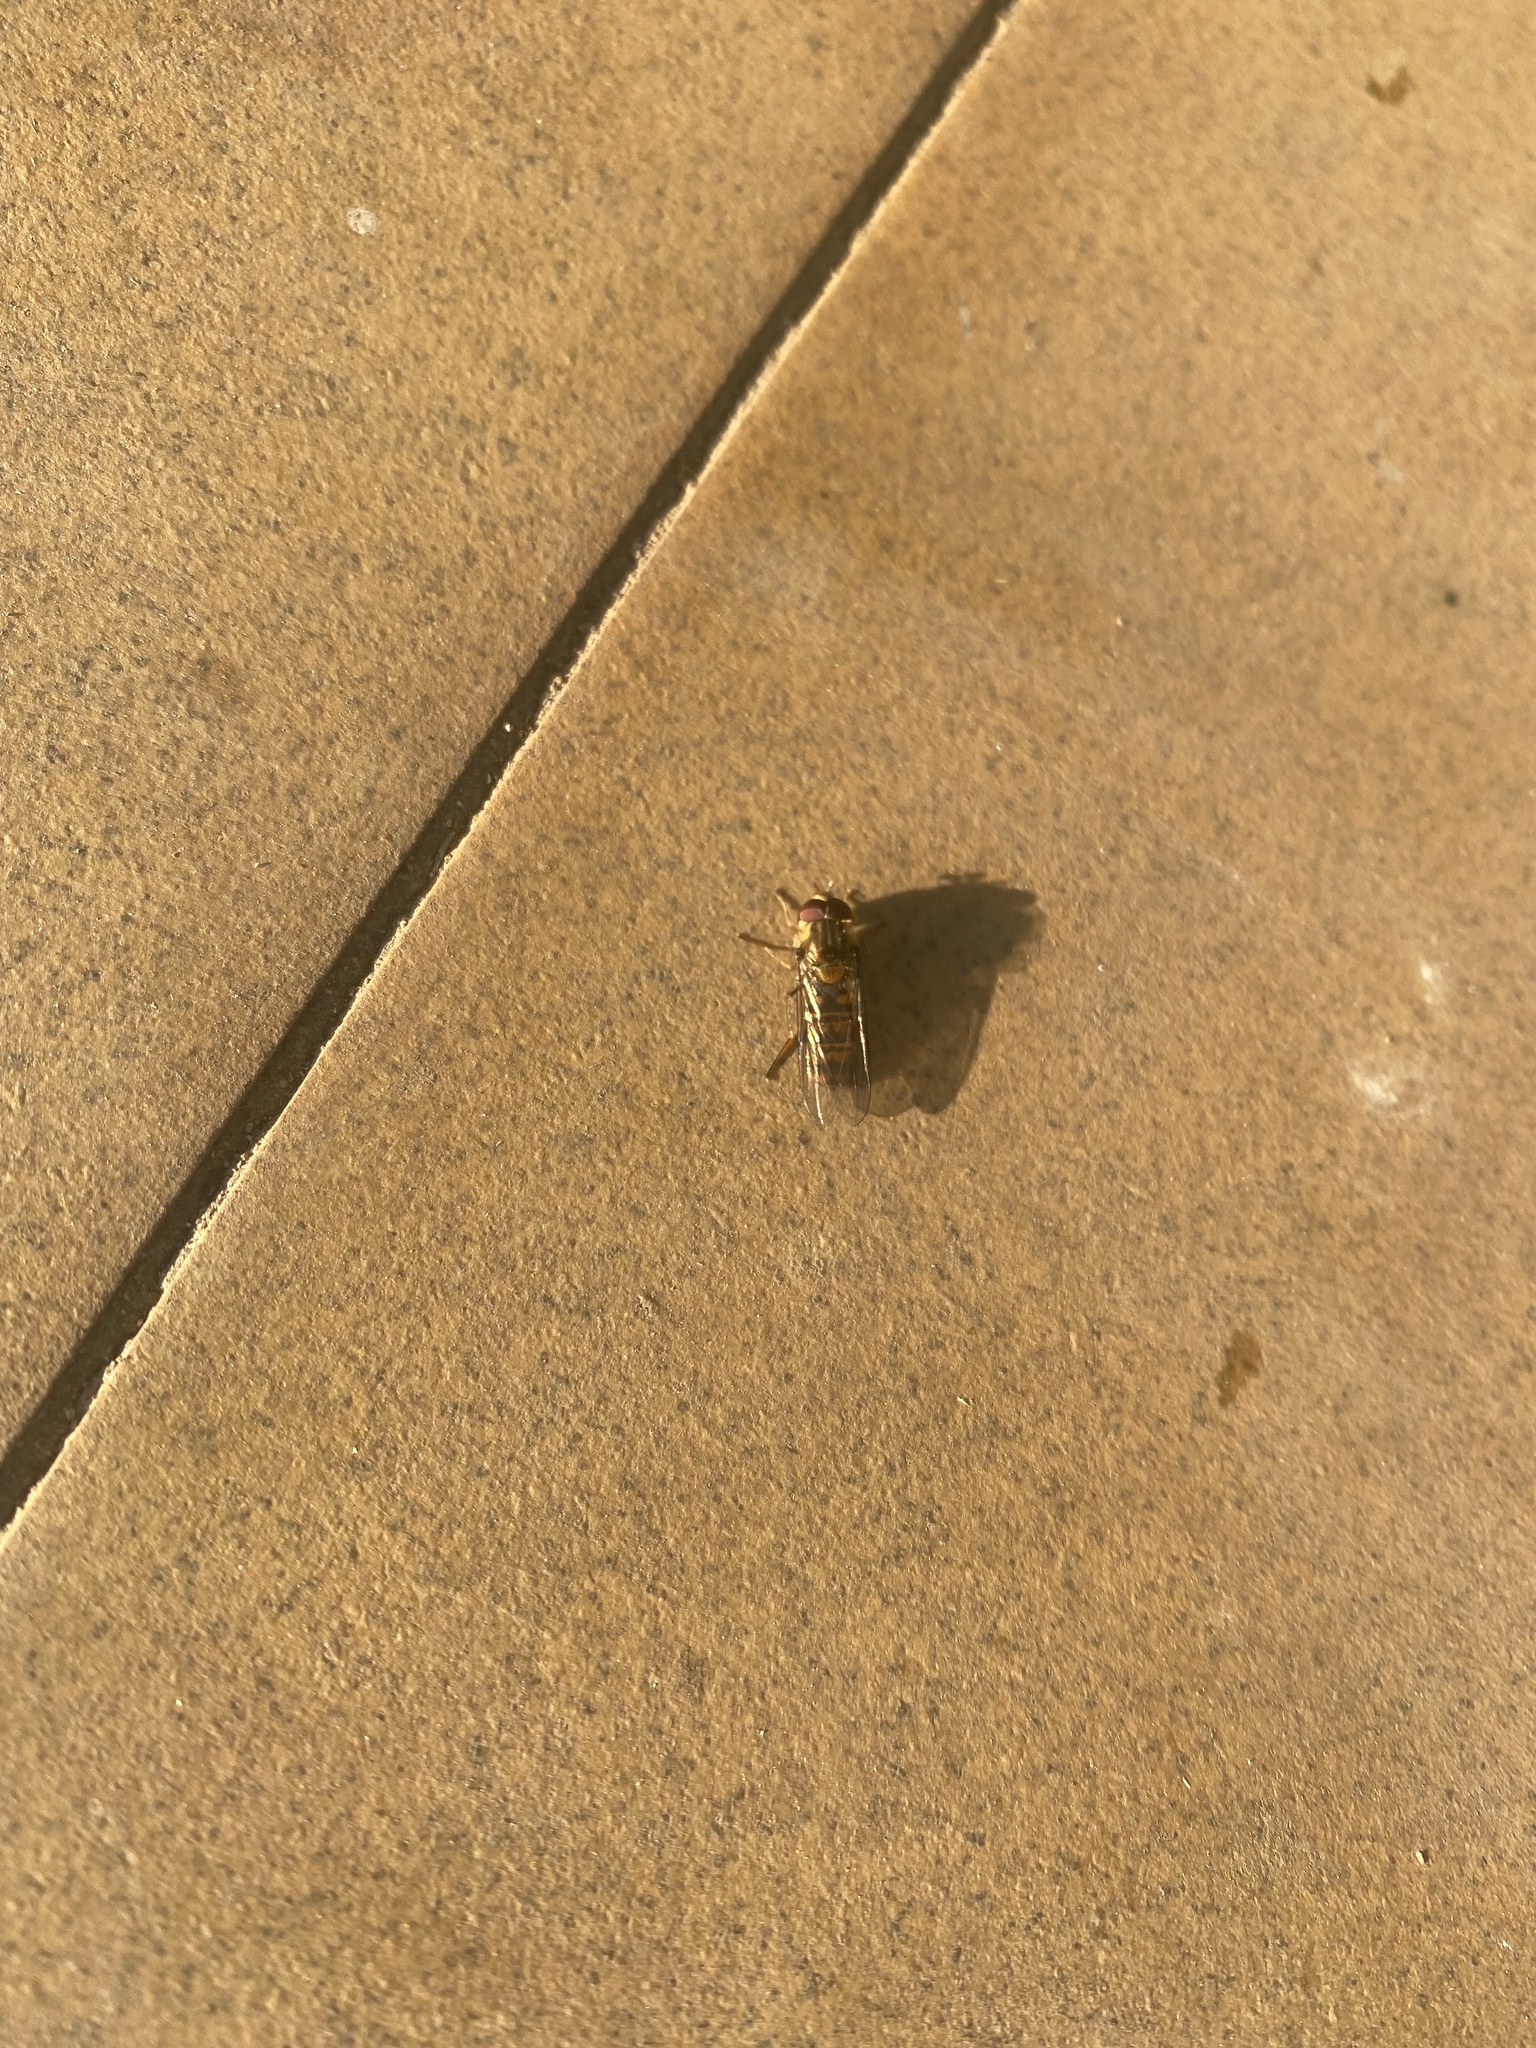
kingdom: Animalia
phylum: Arthropoda
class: Insecta
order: Diptera
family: Syrphidae
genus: Episyrphus
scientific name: Episyrphus balteatus
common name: Marmalade hoverfly
